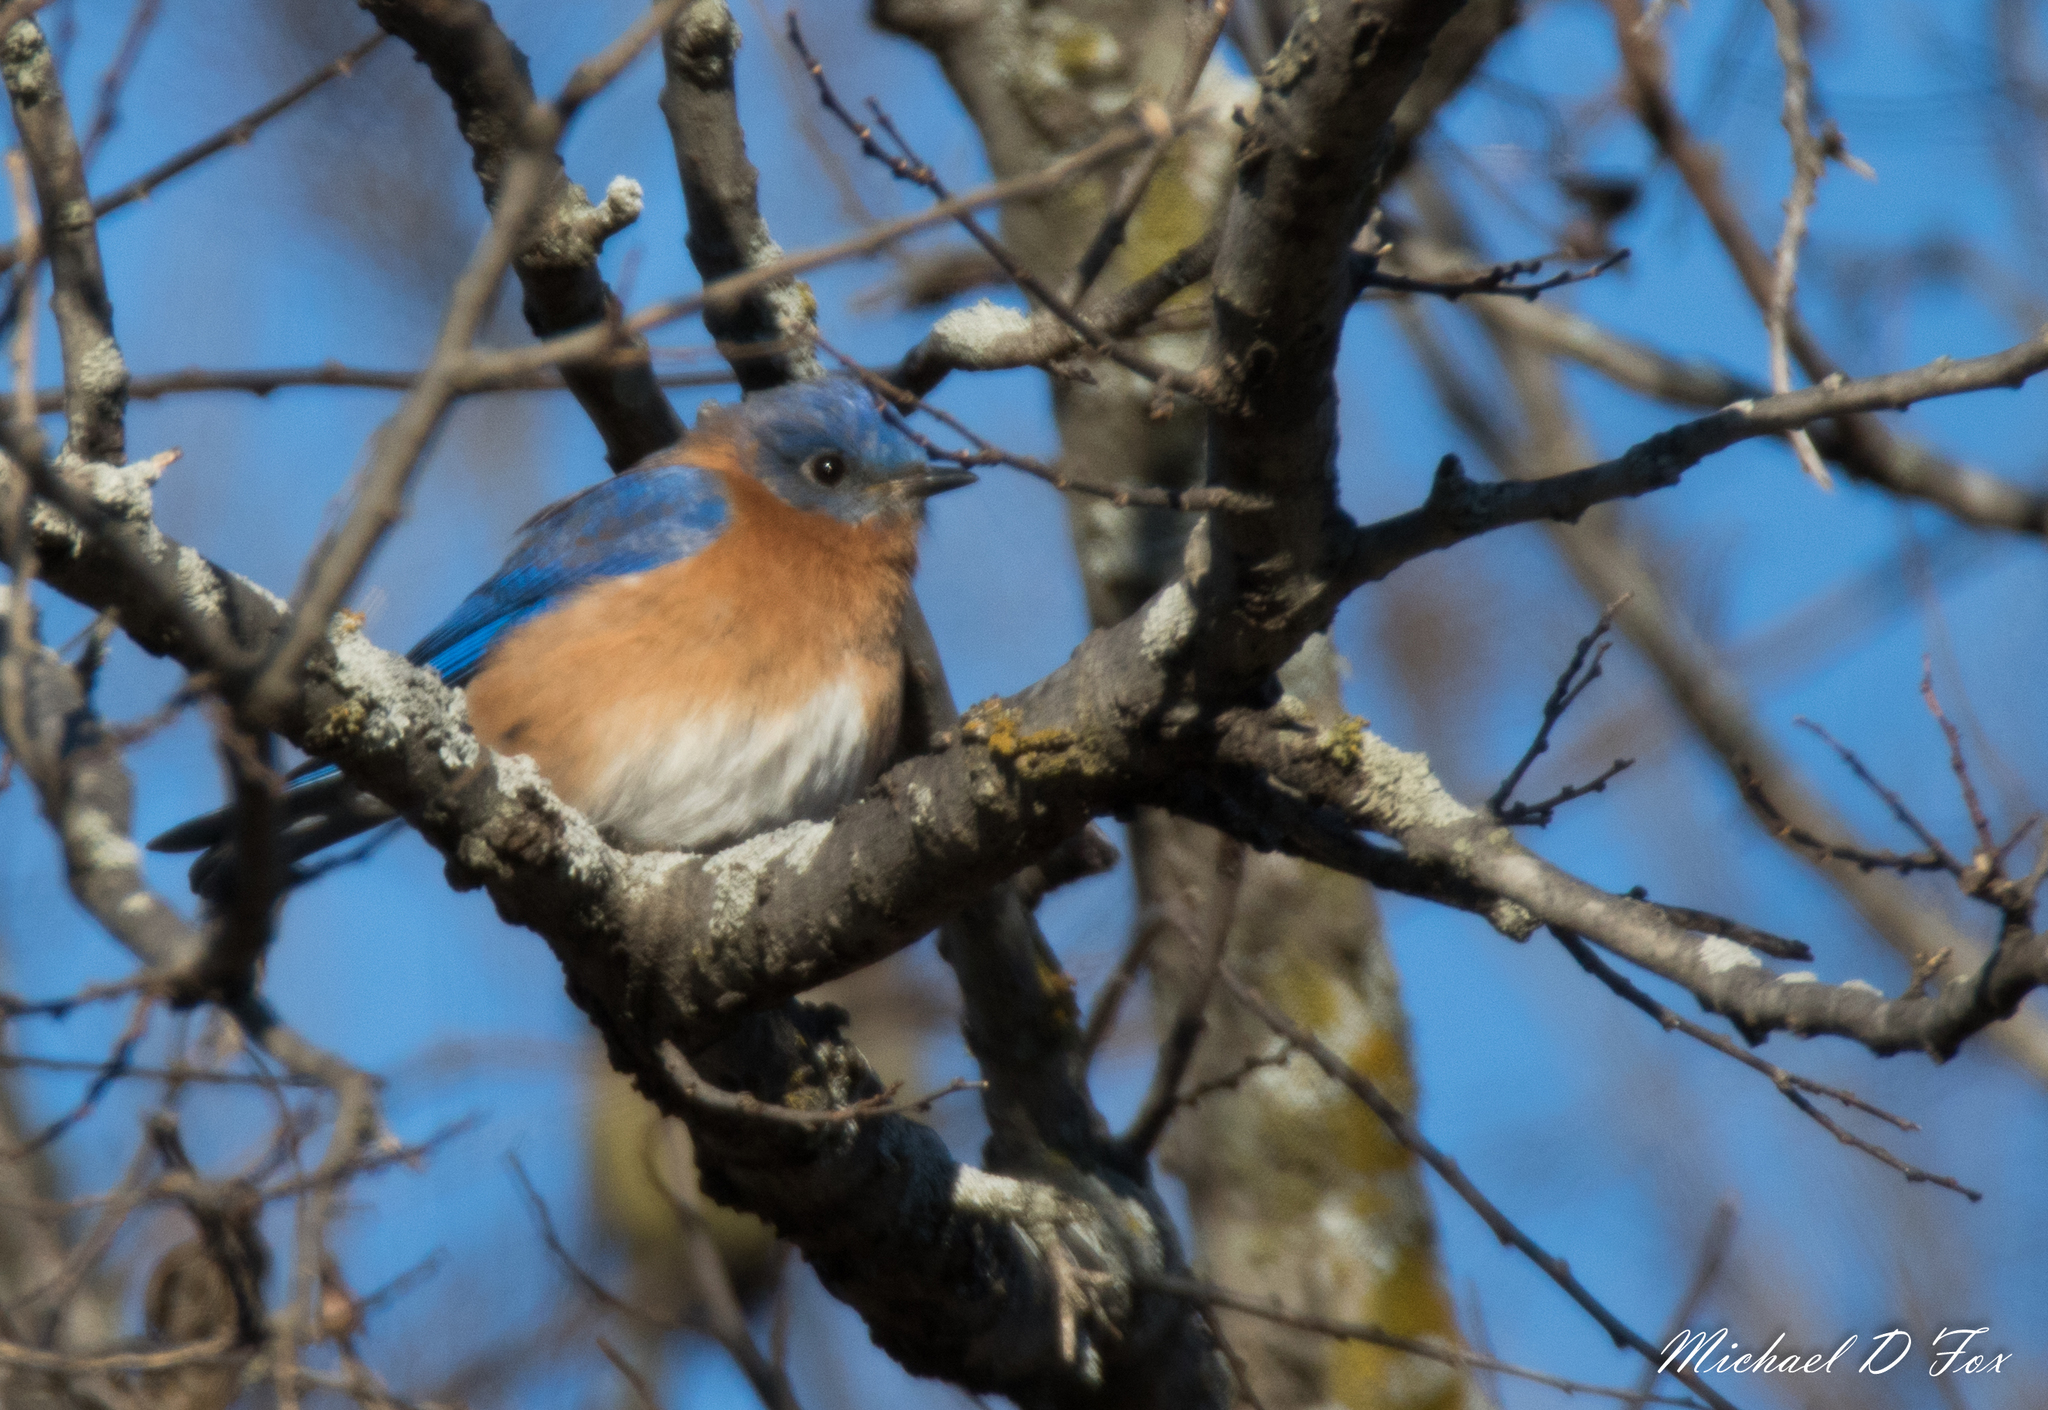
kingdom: Animalia
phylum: Chordata
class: Aves
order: Passeriformes
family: Turdidae
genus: Sialia
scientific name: Sialia sialis
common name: Eastern bluebird
